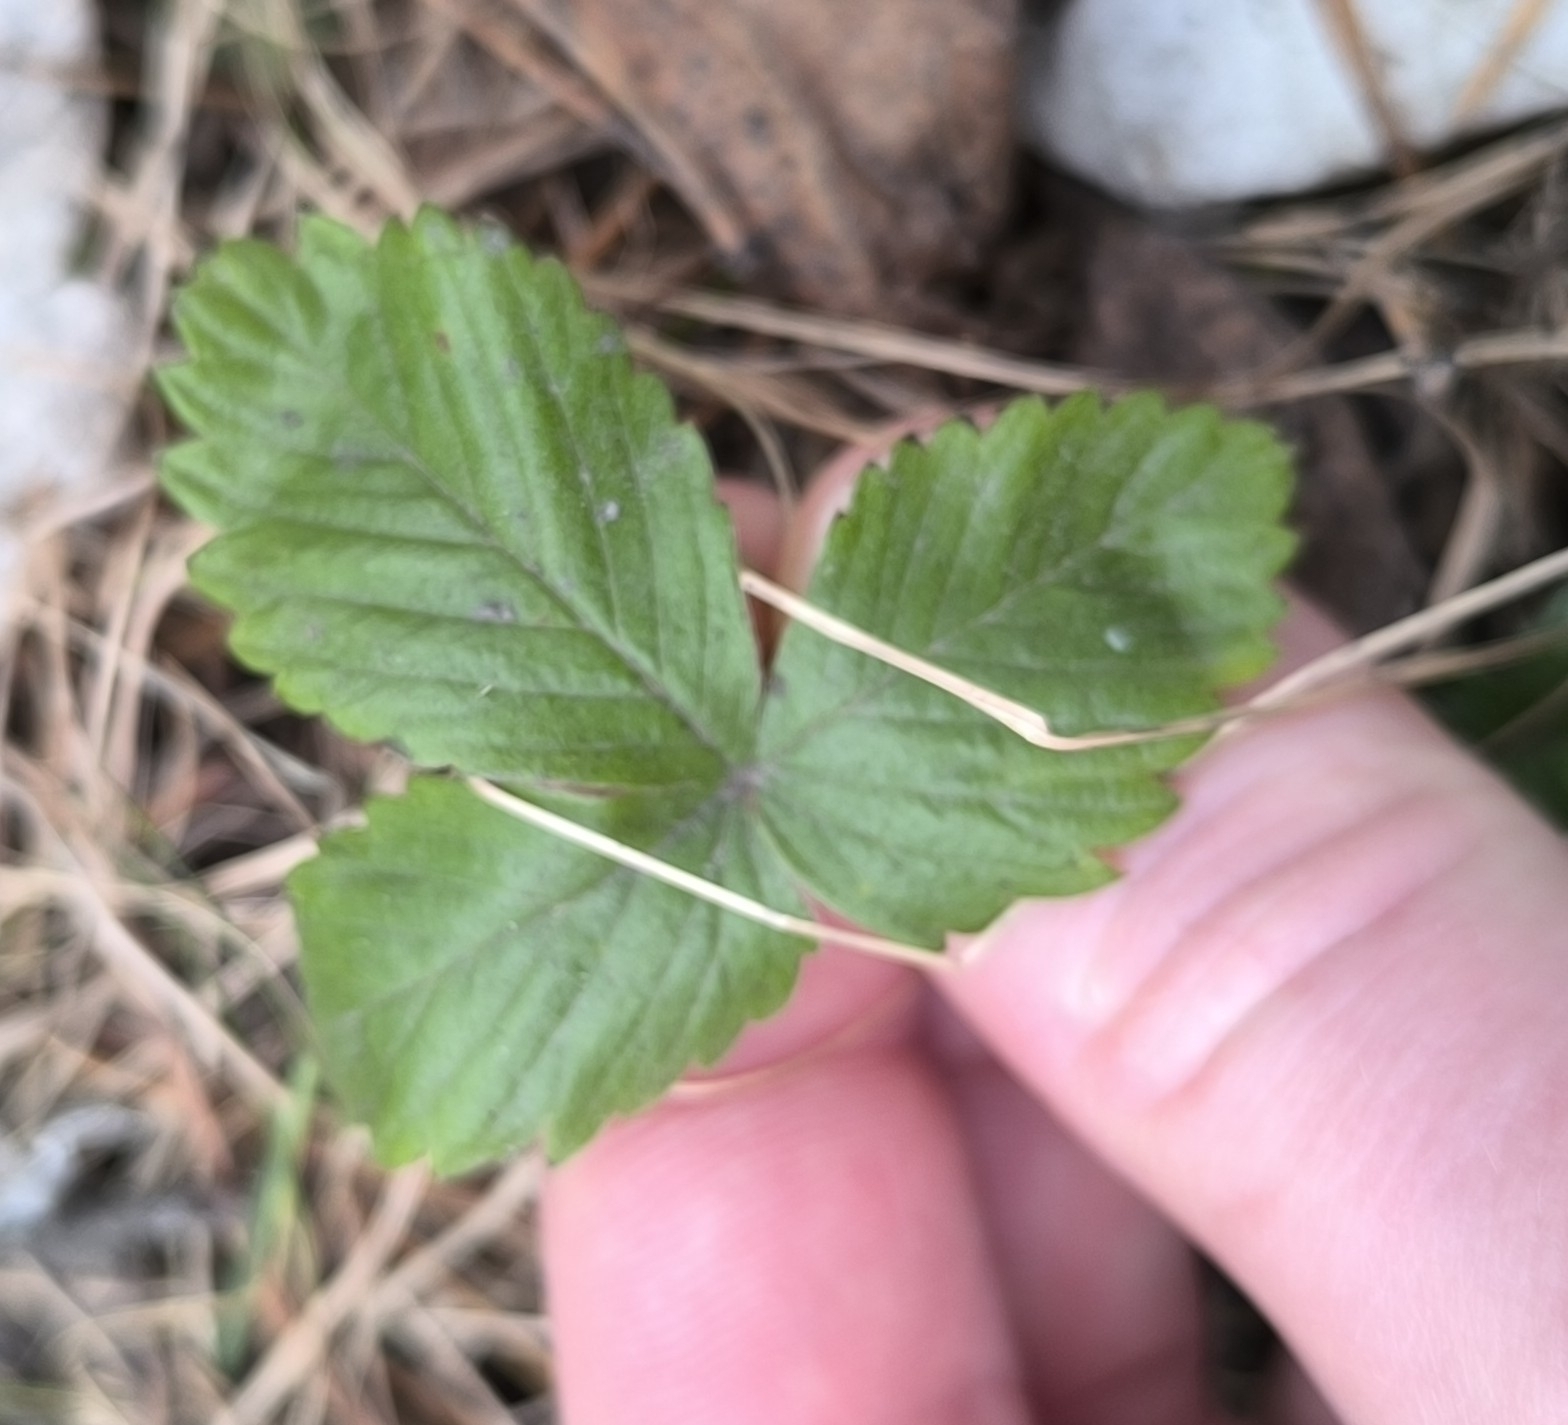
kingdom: Plantae
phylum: Tracheophyta
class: Magnoliopsida
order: Rosales
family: Rosaceae
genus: Fragaria
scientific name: Fragaria vesca
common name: Wild strawberry
